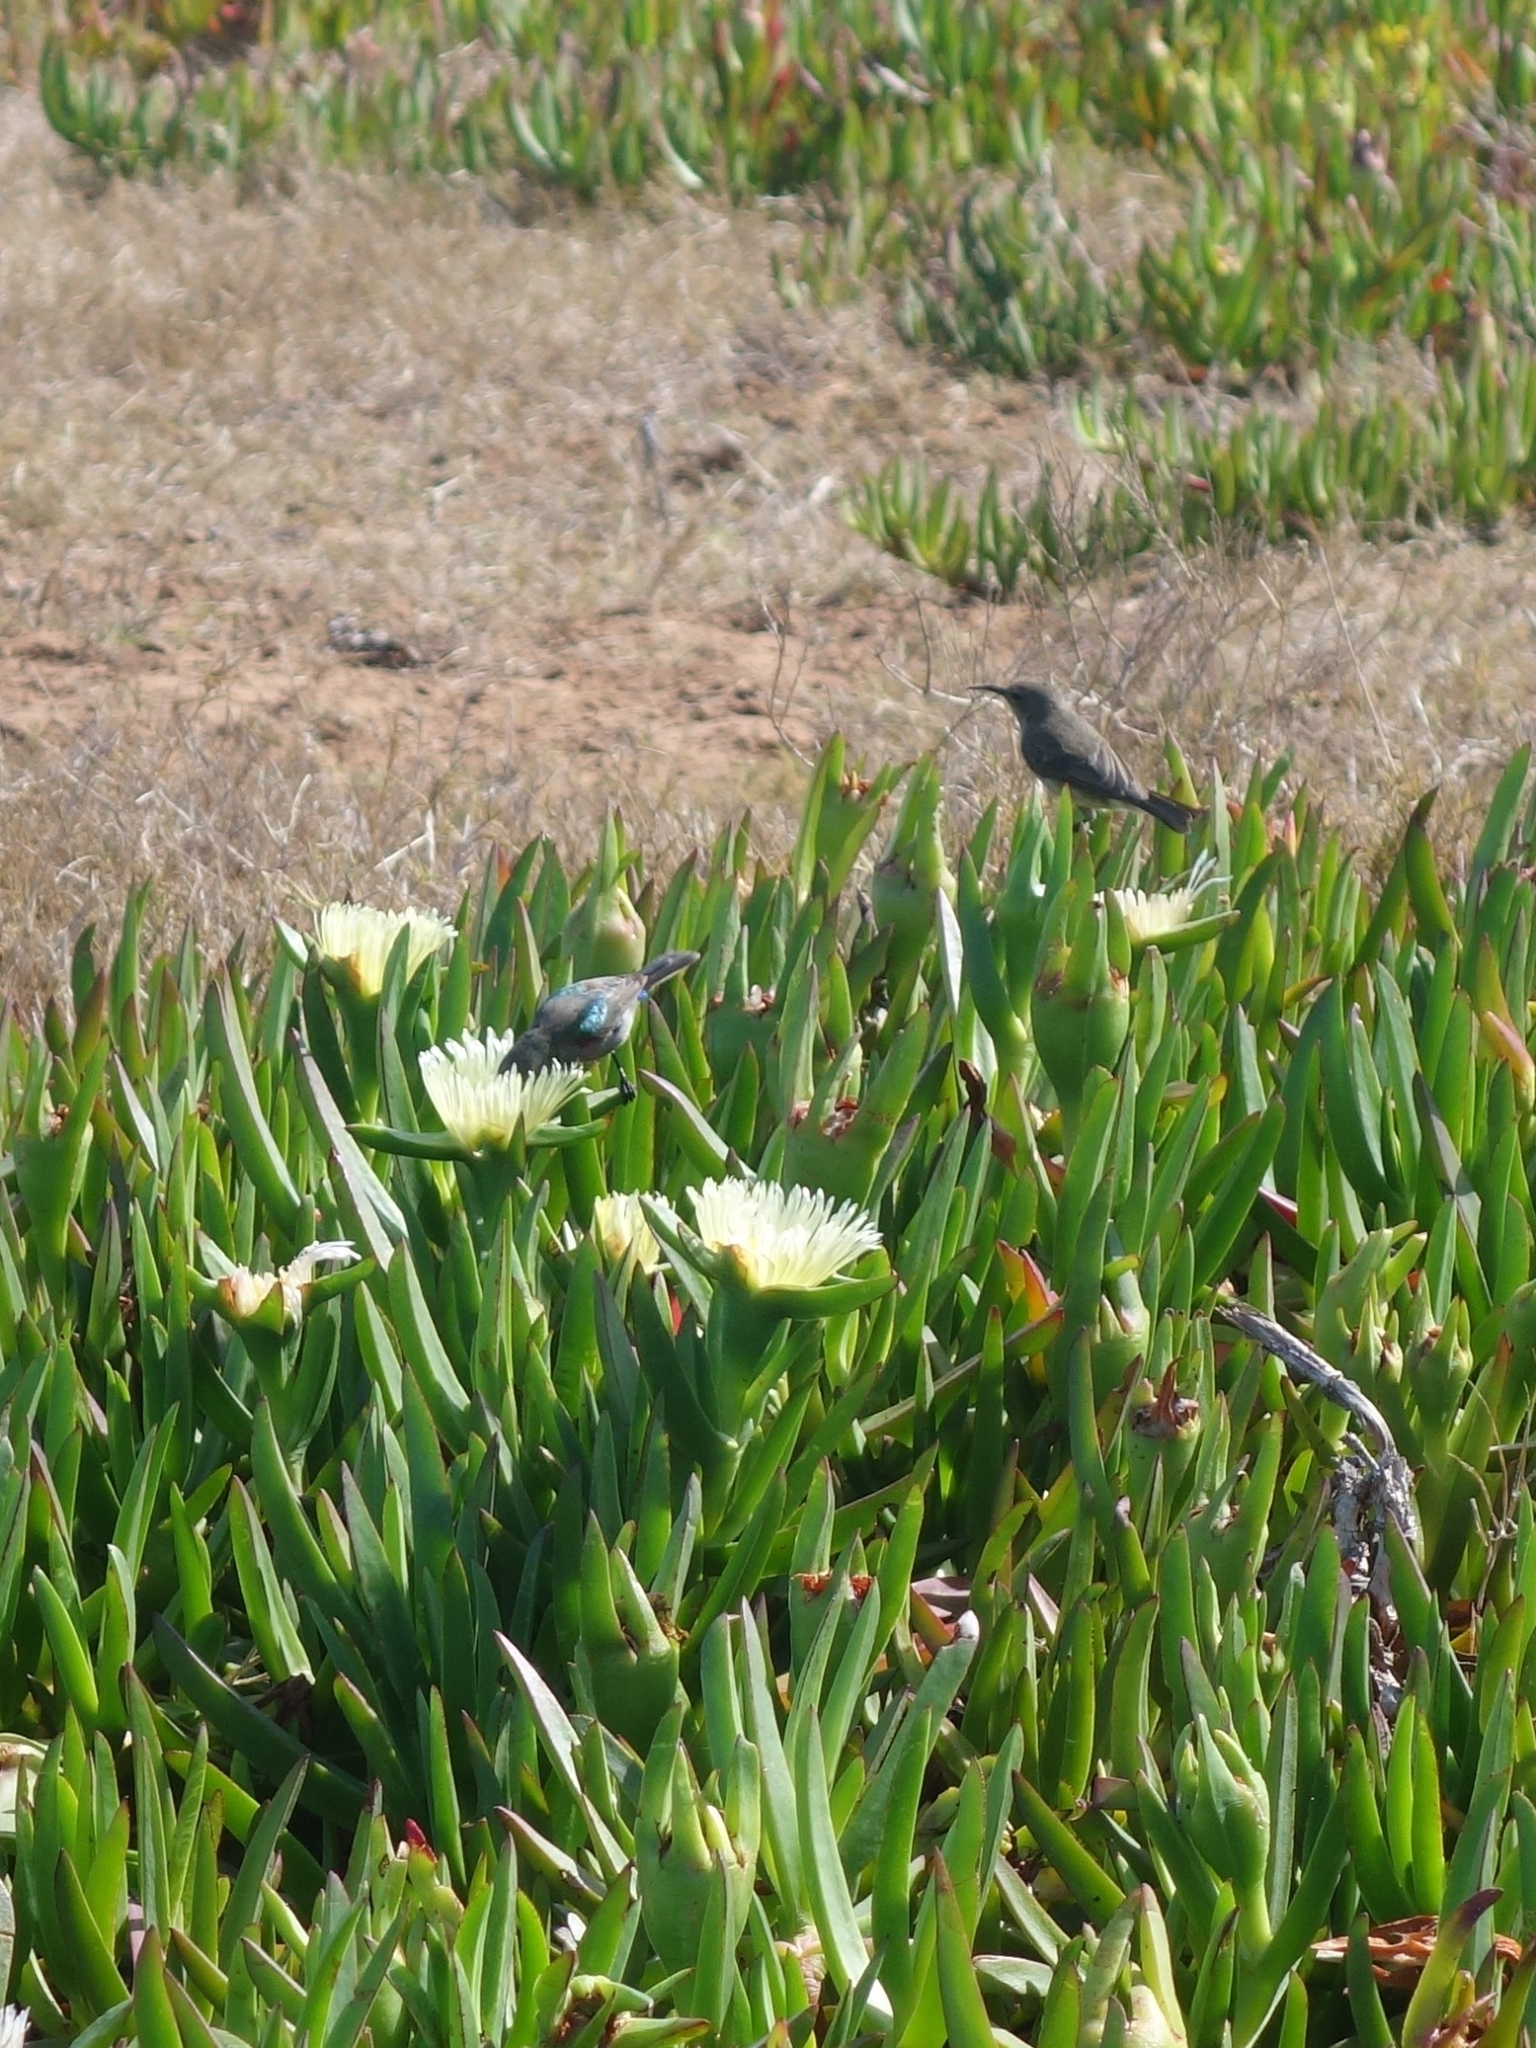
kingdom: Animalia
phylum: Chordata
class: Aves
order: Passeriformes
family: Nectariniidae
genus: Cinnyris
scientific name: Cinnyris chalybeus
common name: Southern double-collared sunbird
